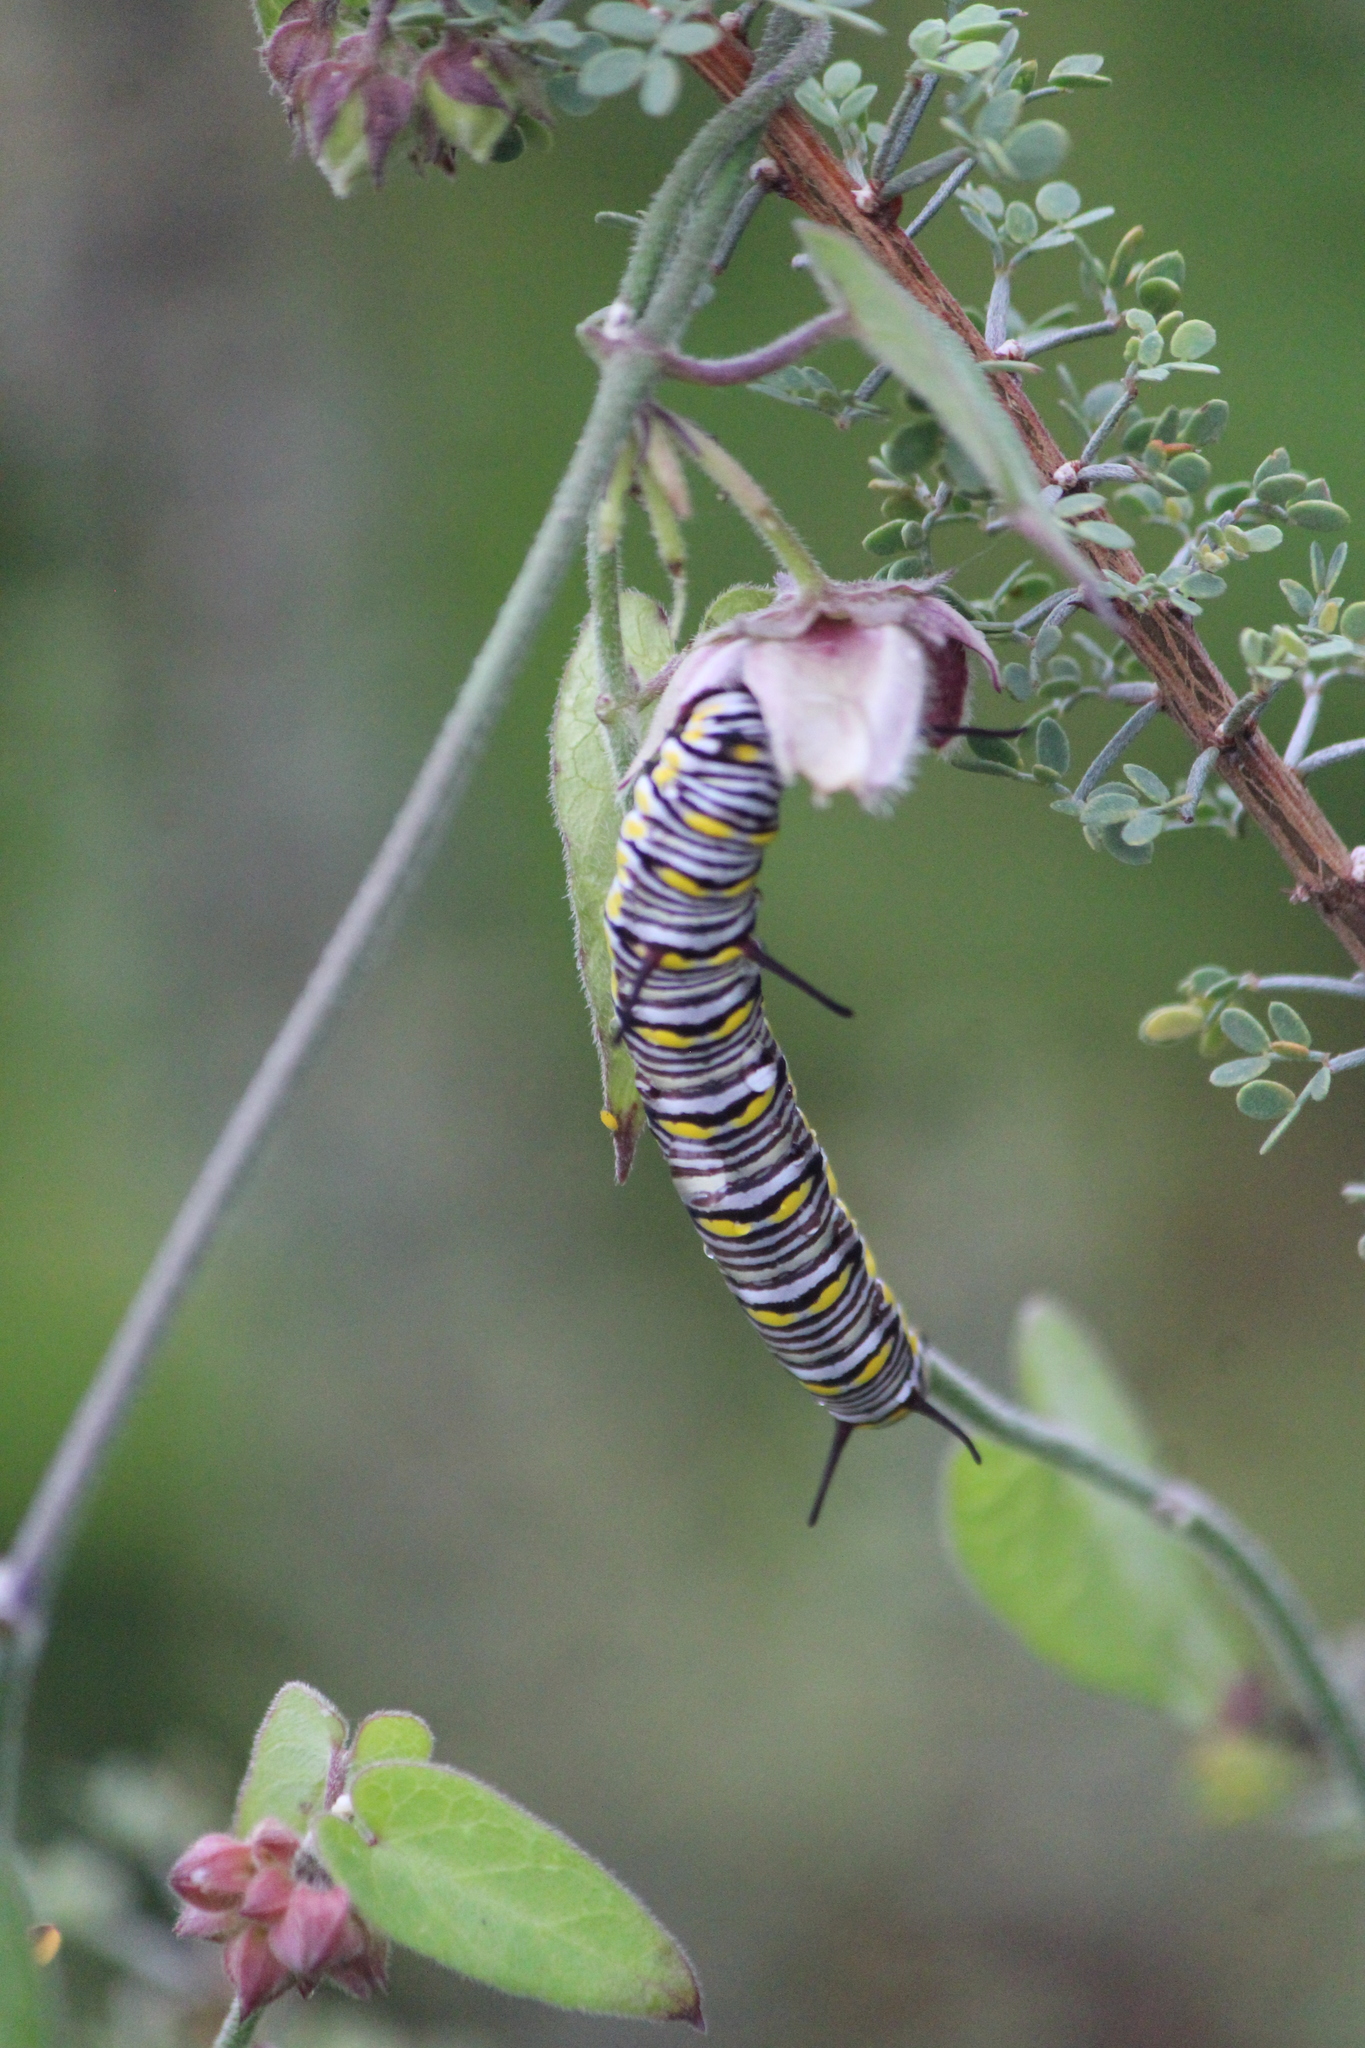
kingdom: Animalia
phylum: Arthropoda
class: Insecta
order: Lepidoptera
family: Nymphalidae
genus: Danaus
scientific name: Danaus gilippus
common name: Queen
